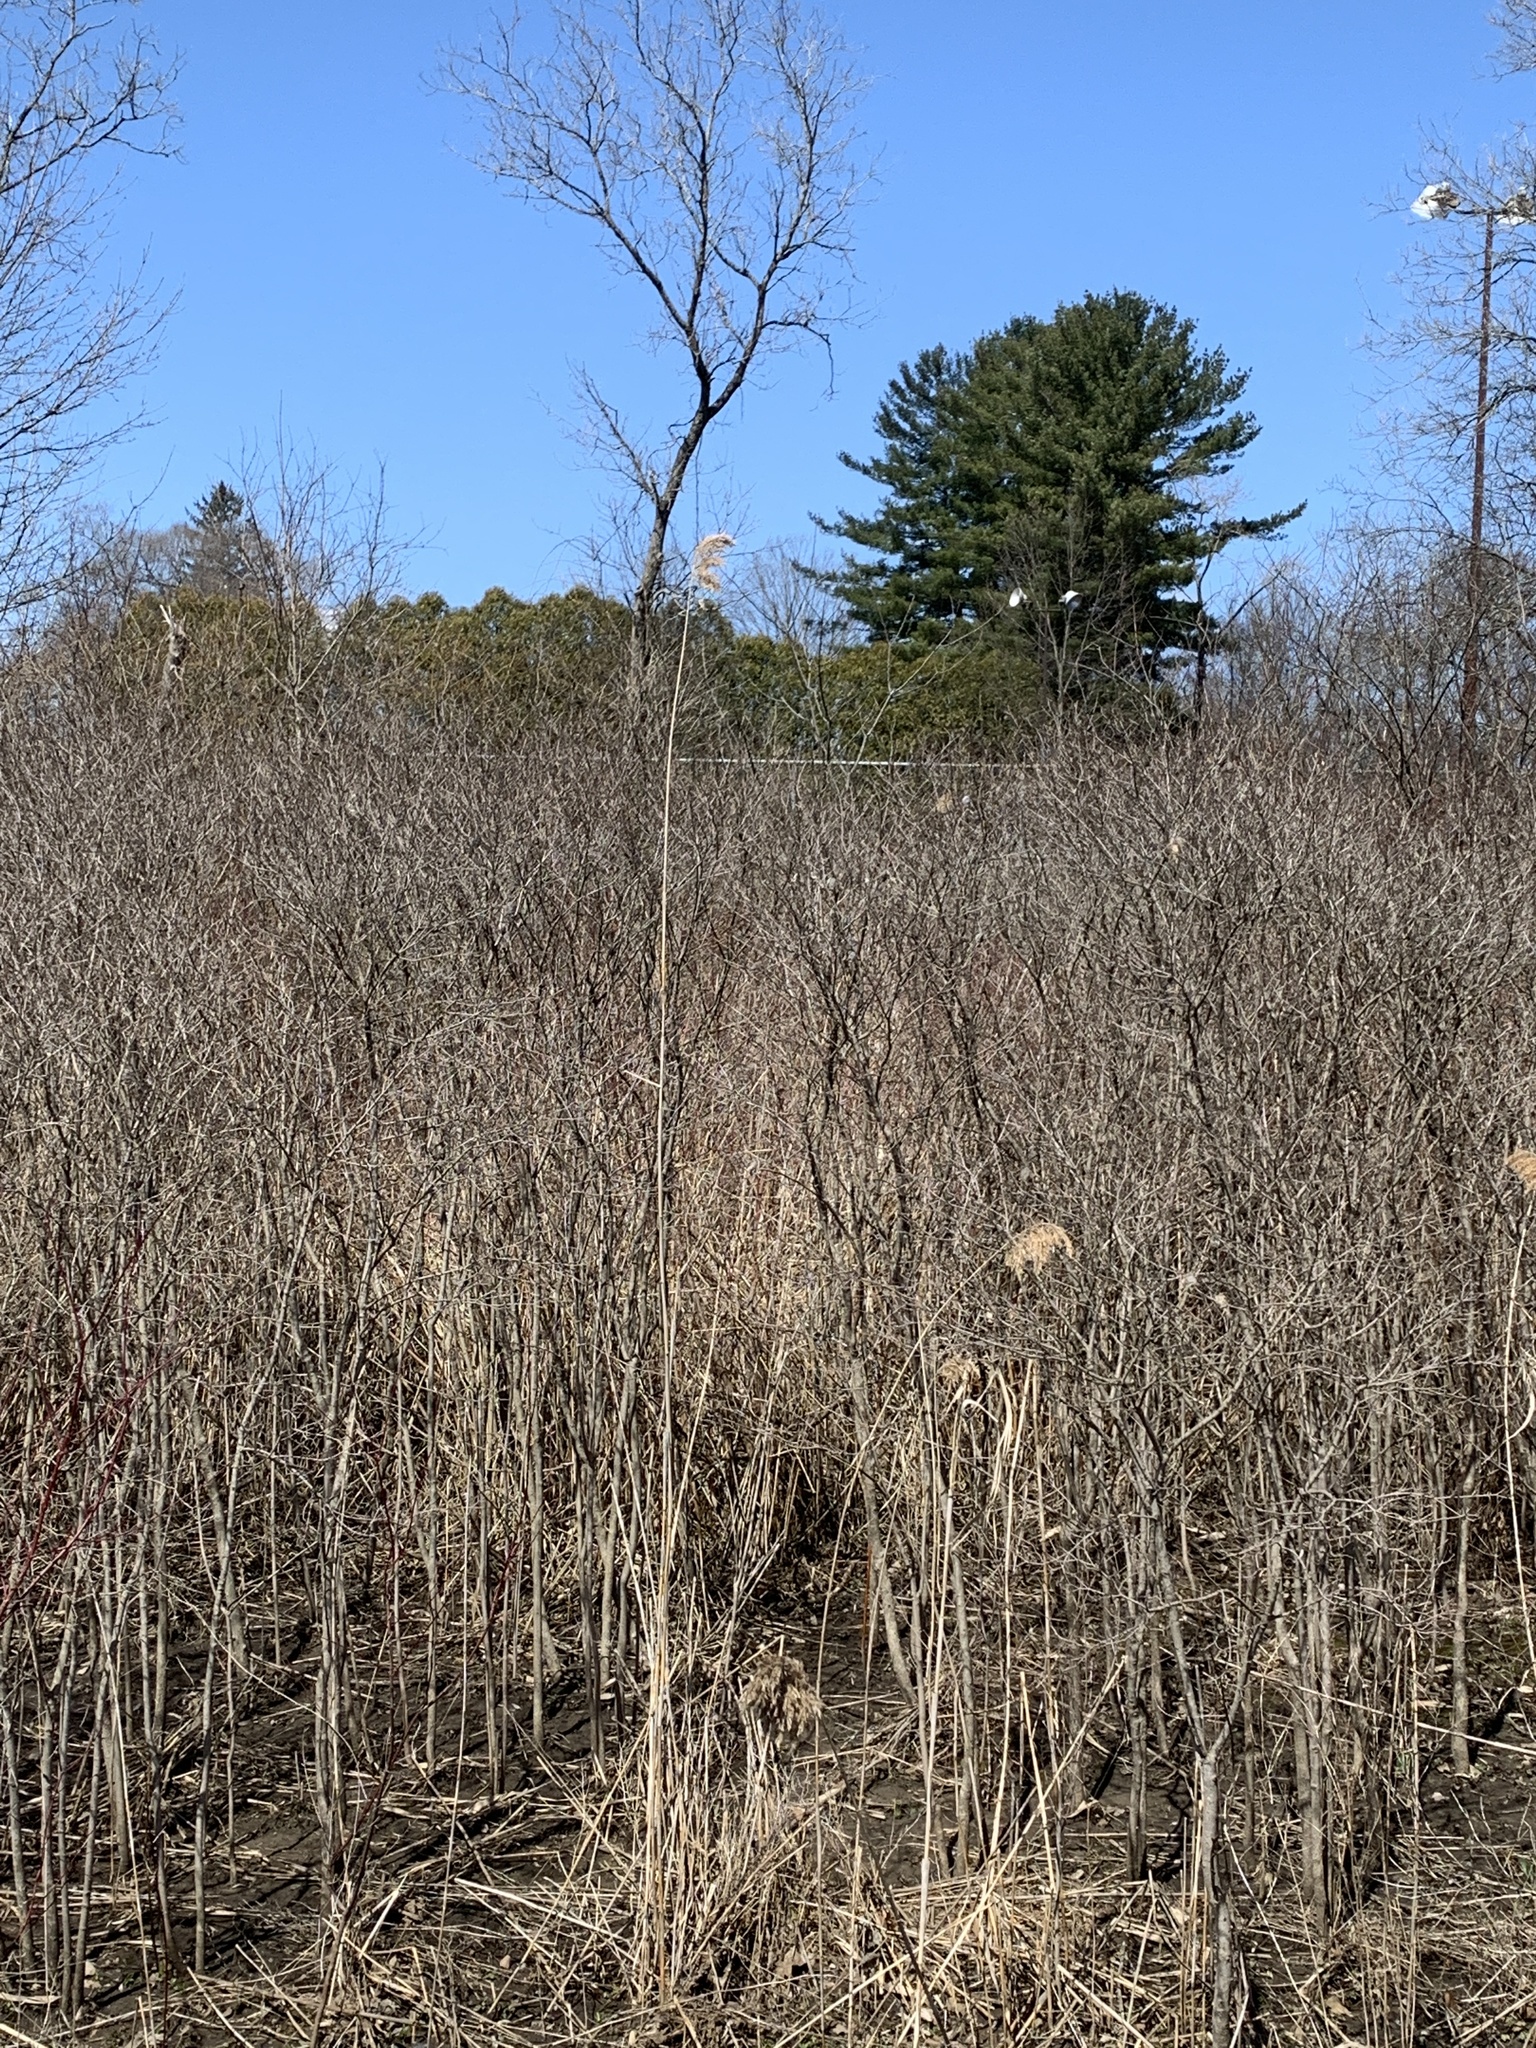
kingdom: Plantae
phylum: Tracheophyta
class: Liliopsida
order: Poales
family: Poaceae
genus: Phragmites
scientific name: Phragmites australis
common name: Common reed
